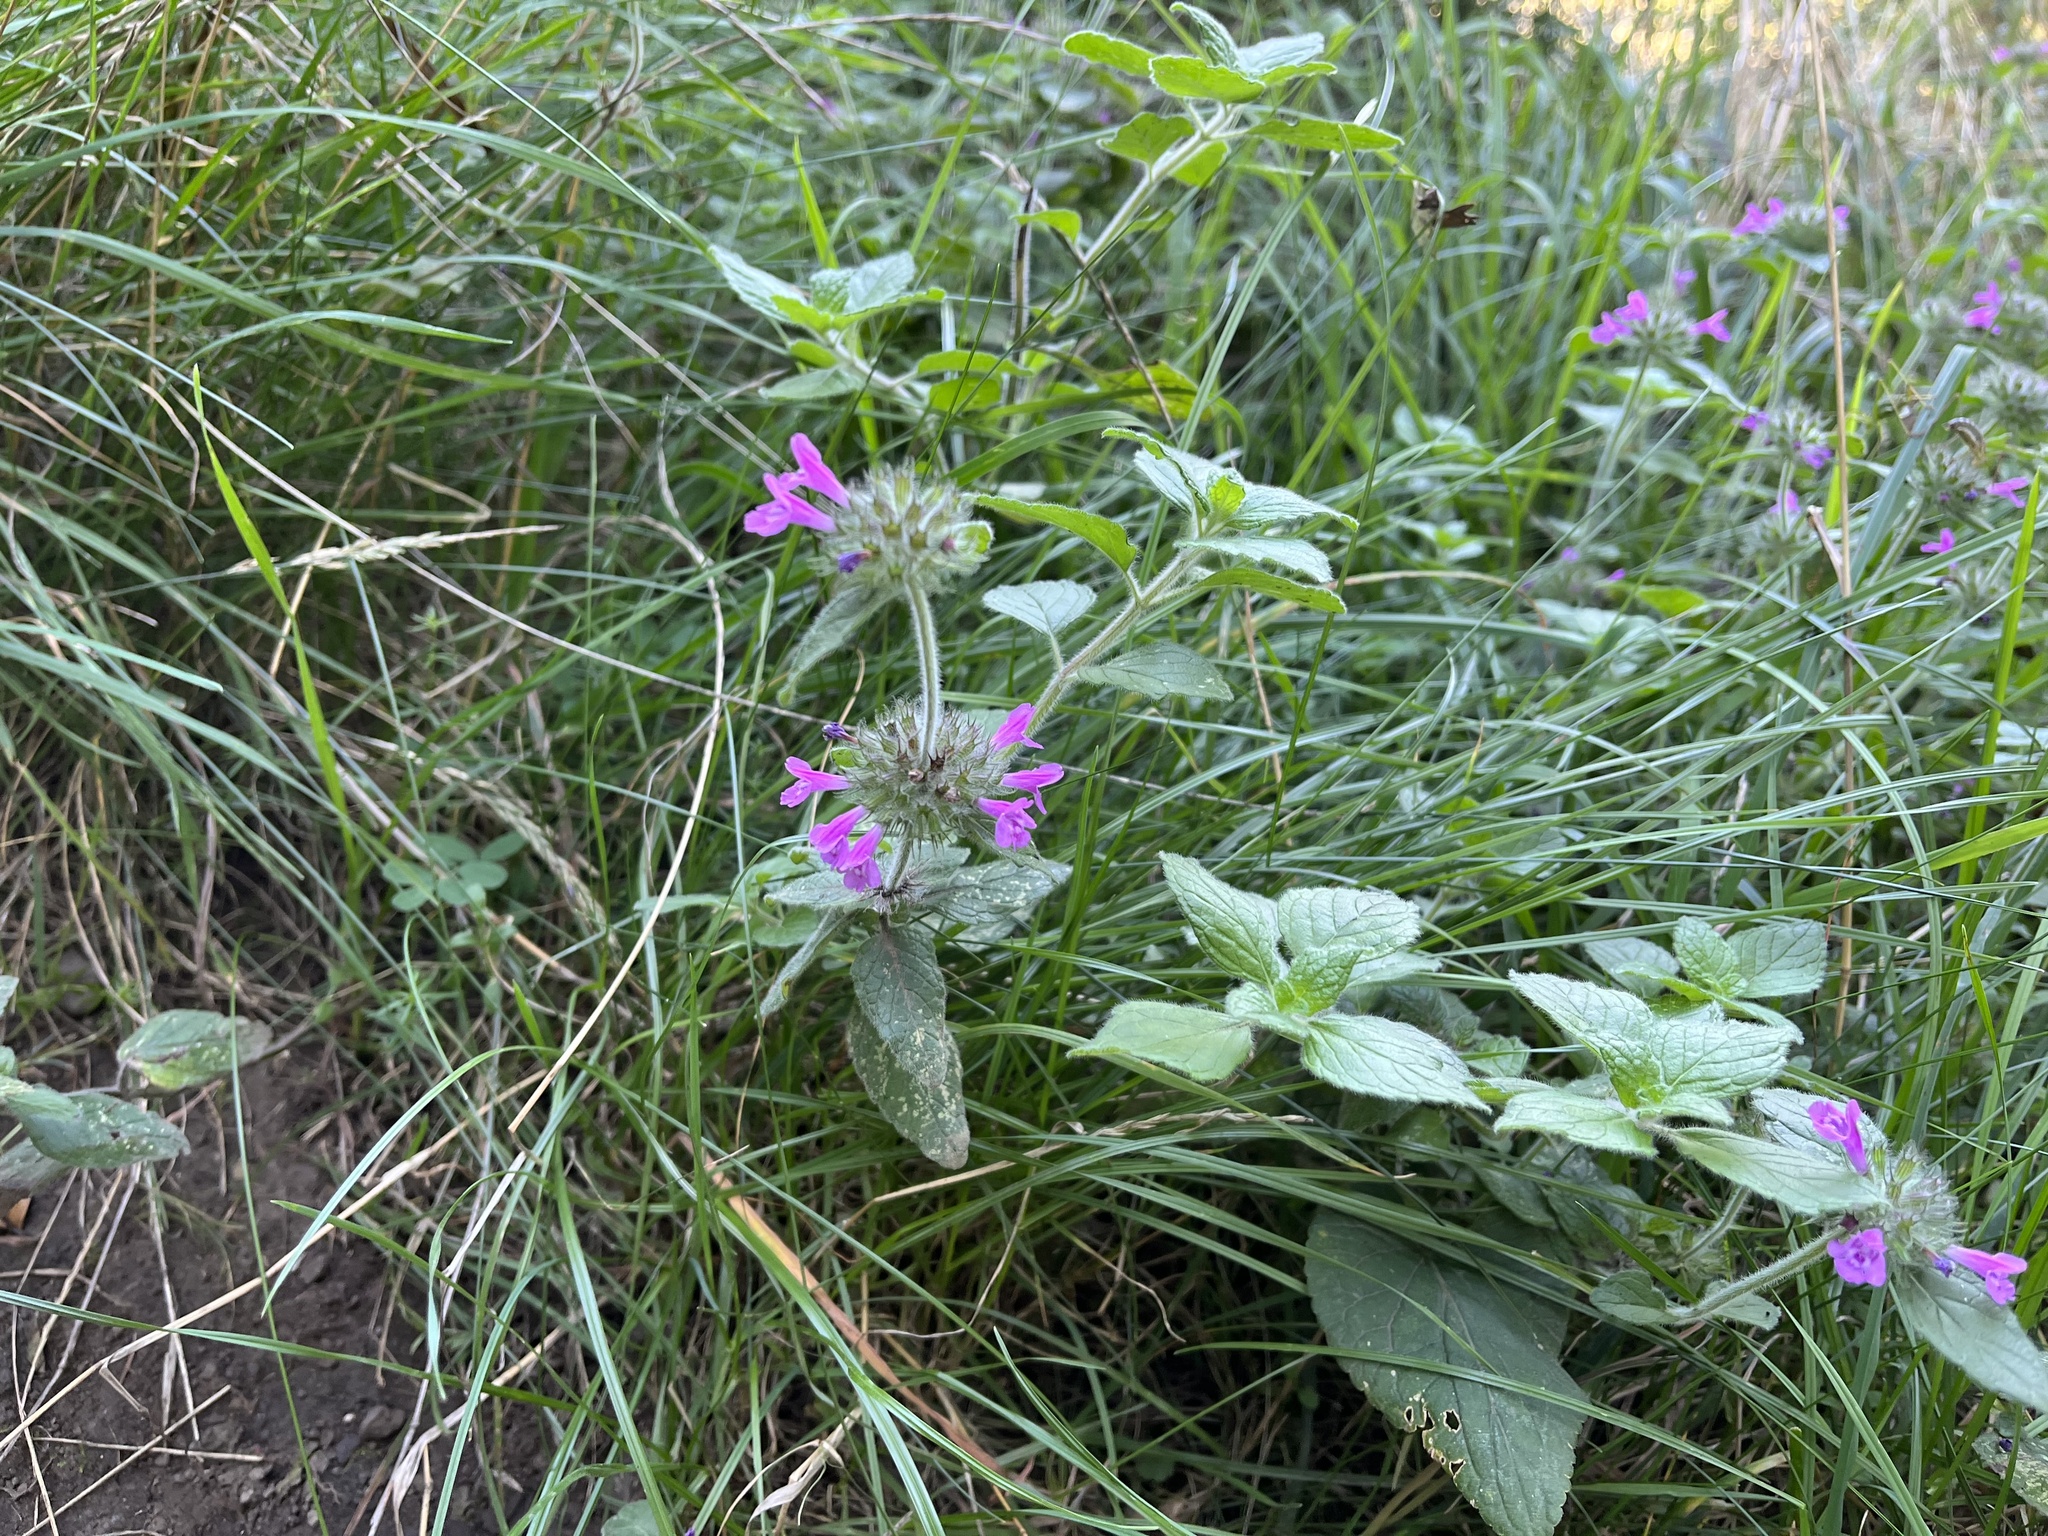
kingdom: Plantae
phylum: Tracheophyta
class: Magnoliopsida
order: Lamiales
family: Lamiaceae
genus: Clinopodium
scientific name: Clinopodium vulgare
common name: Wild basil
